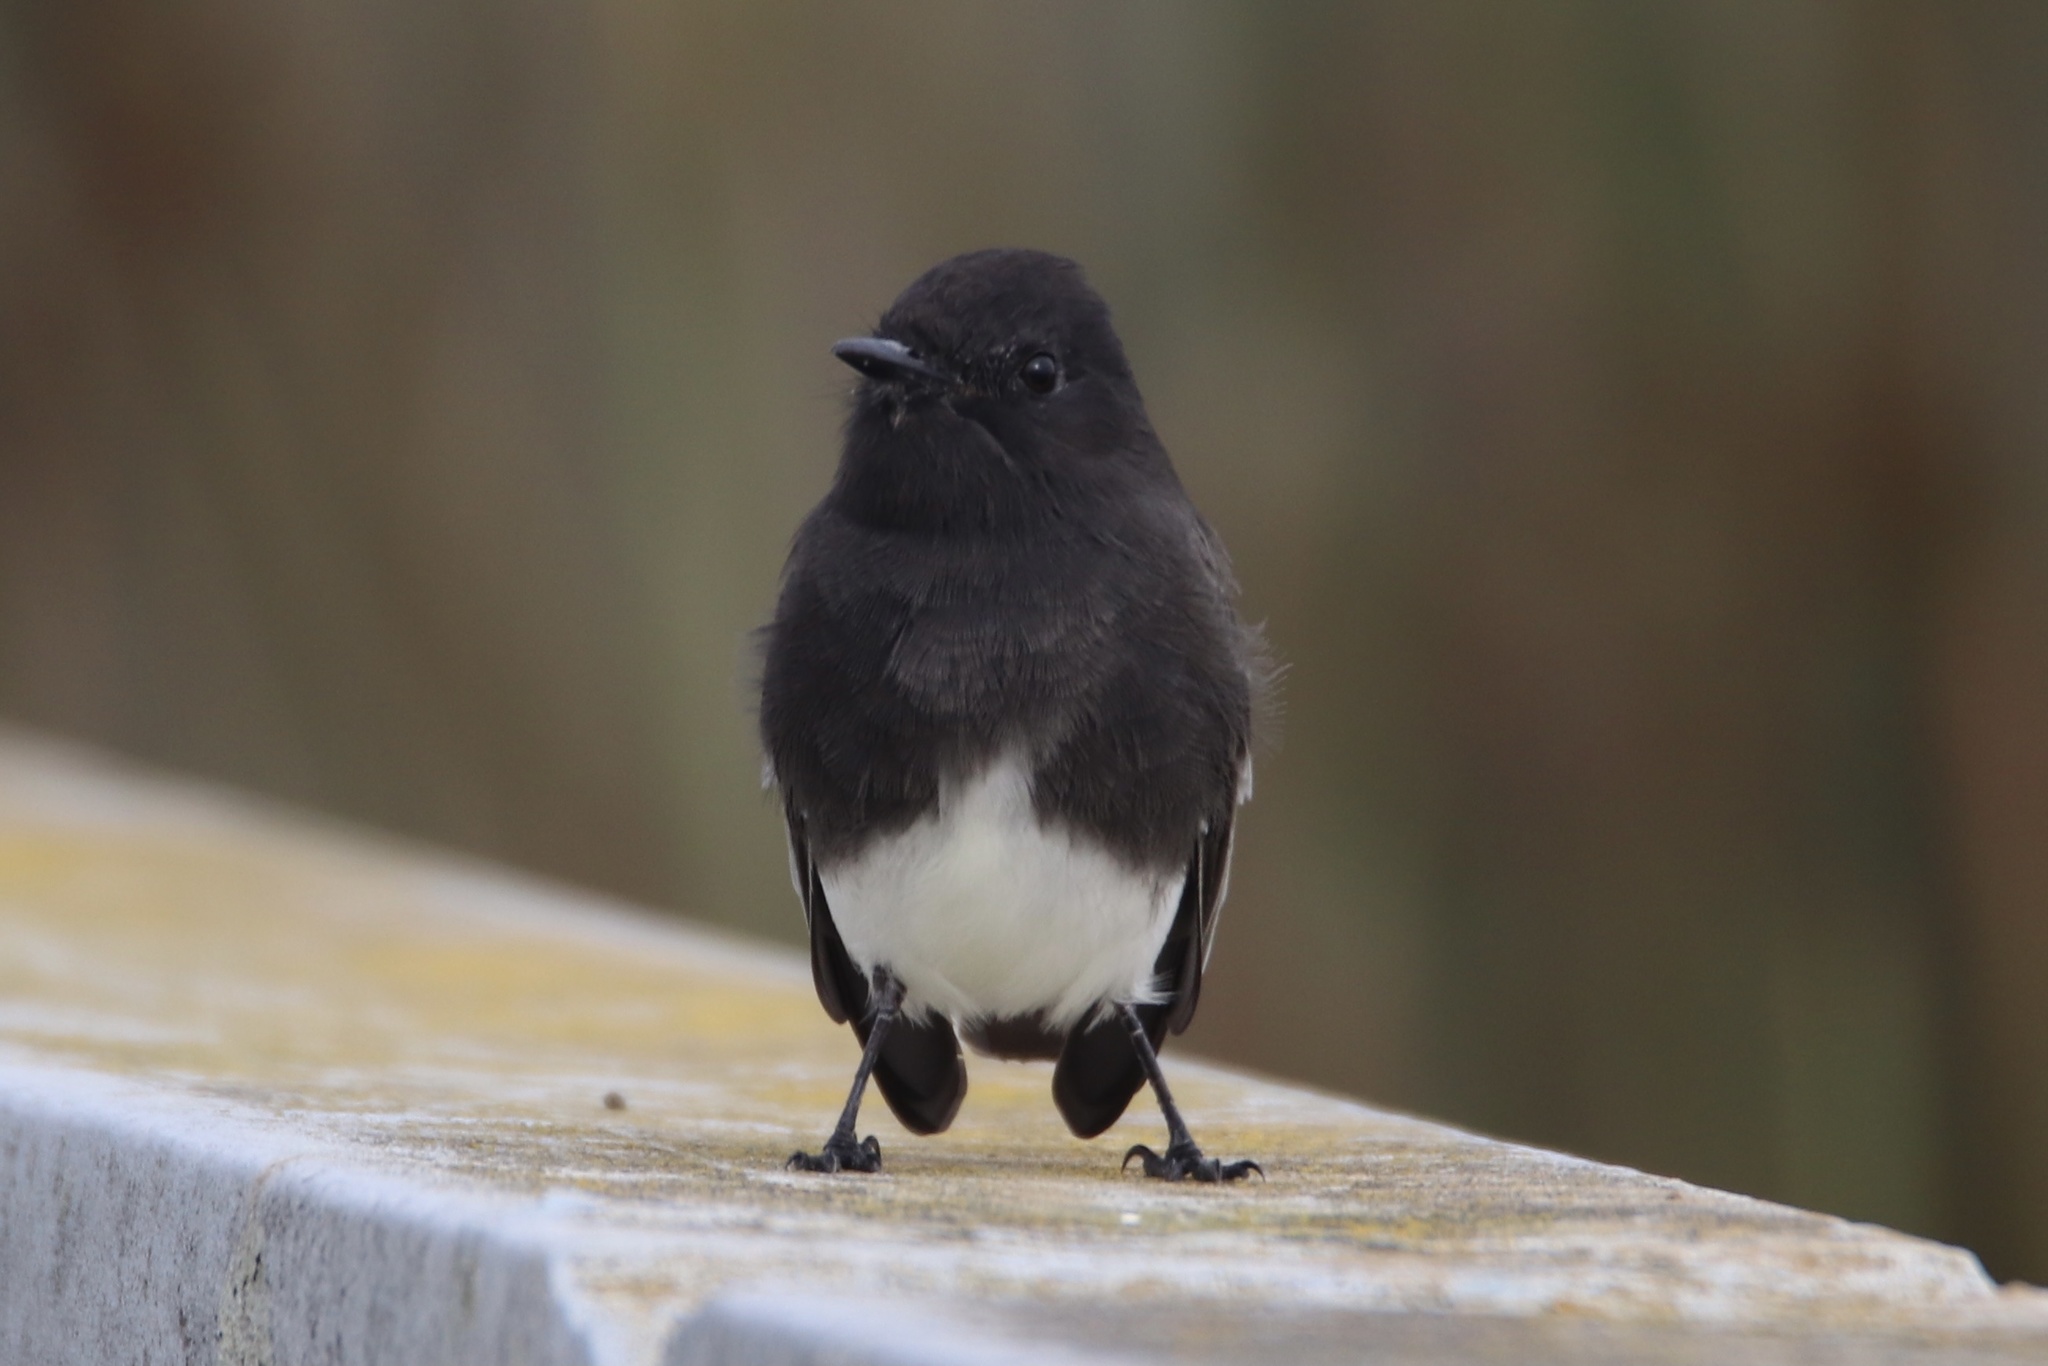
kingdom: Animalia
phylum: Chordata
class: Aves
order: Passeriformes
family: Tyrannidae
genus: Sayornis
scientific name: Sayornis nigricans
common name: Black phoebe
